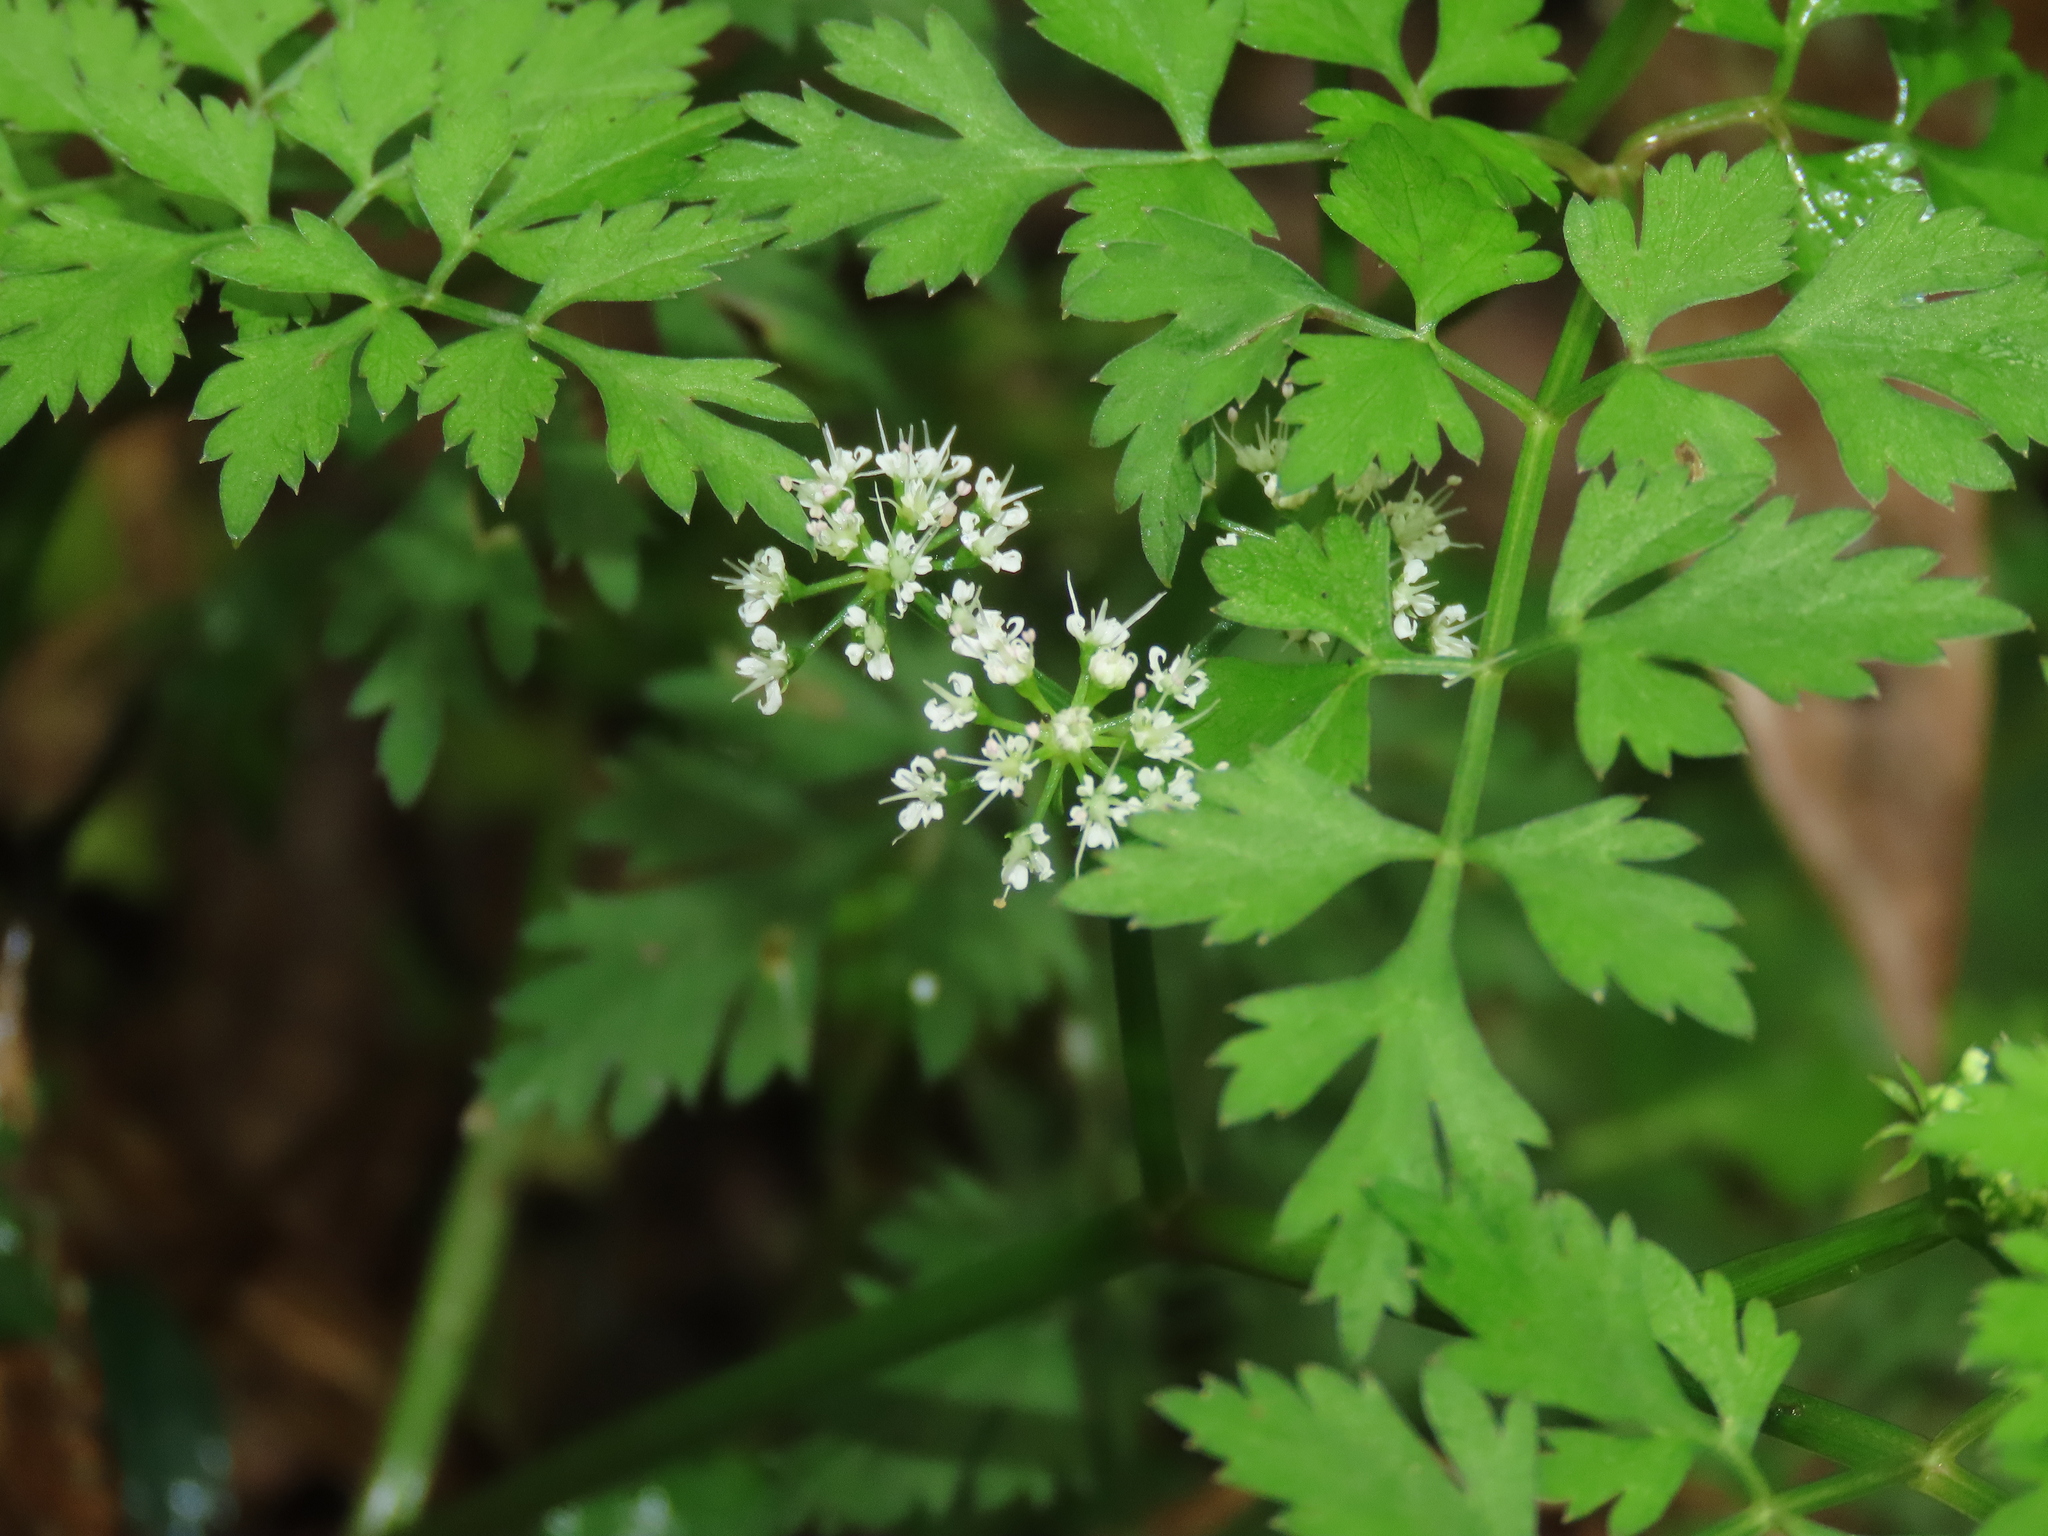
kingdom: Plantae
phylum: Tracheophyta
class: Magnoliopsida
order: Apiales
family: Apiaceae
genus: Oenanthe
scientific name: Oenanthe javanica
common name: Java water-dropwort
